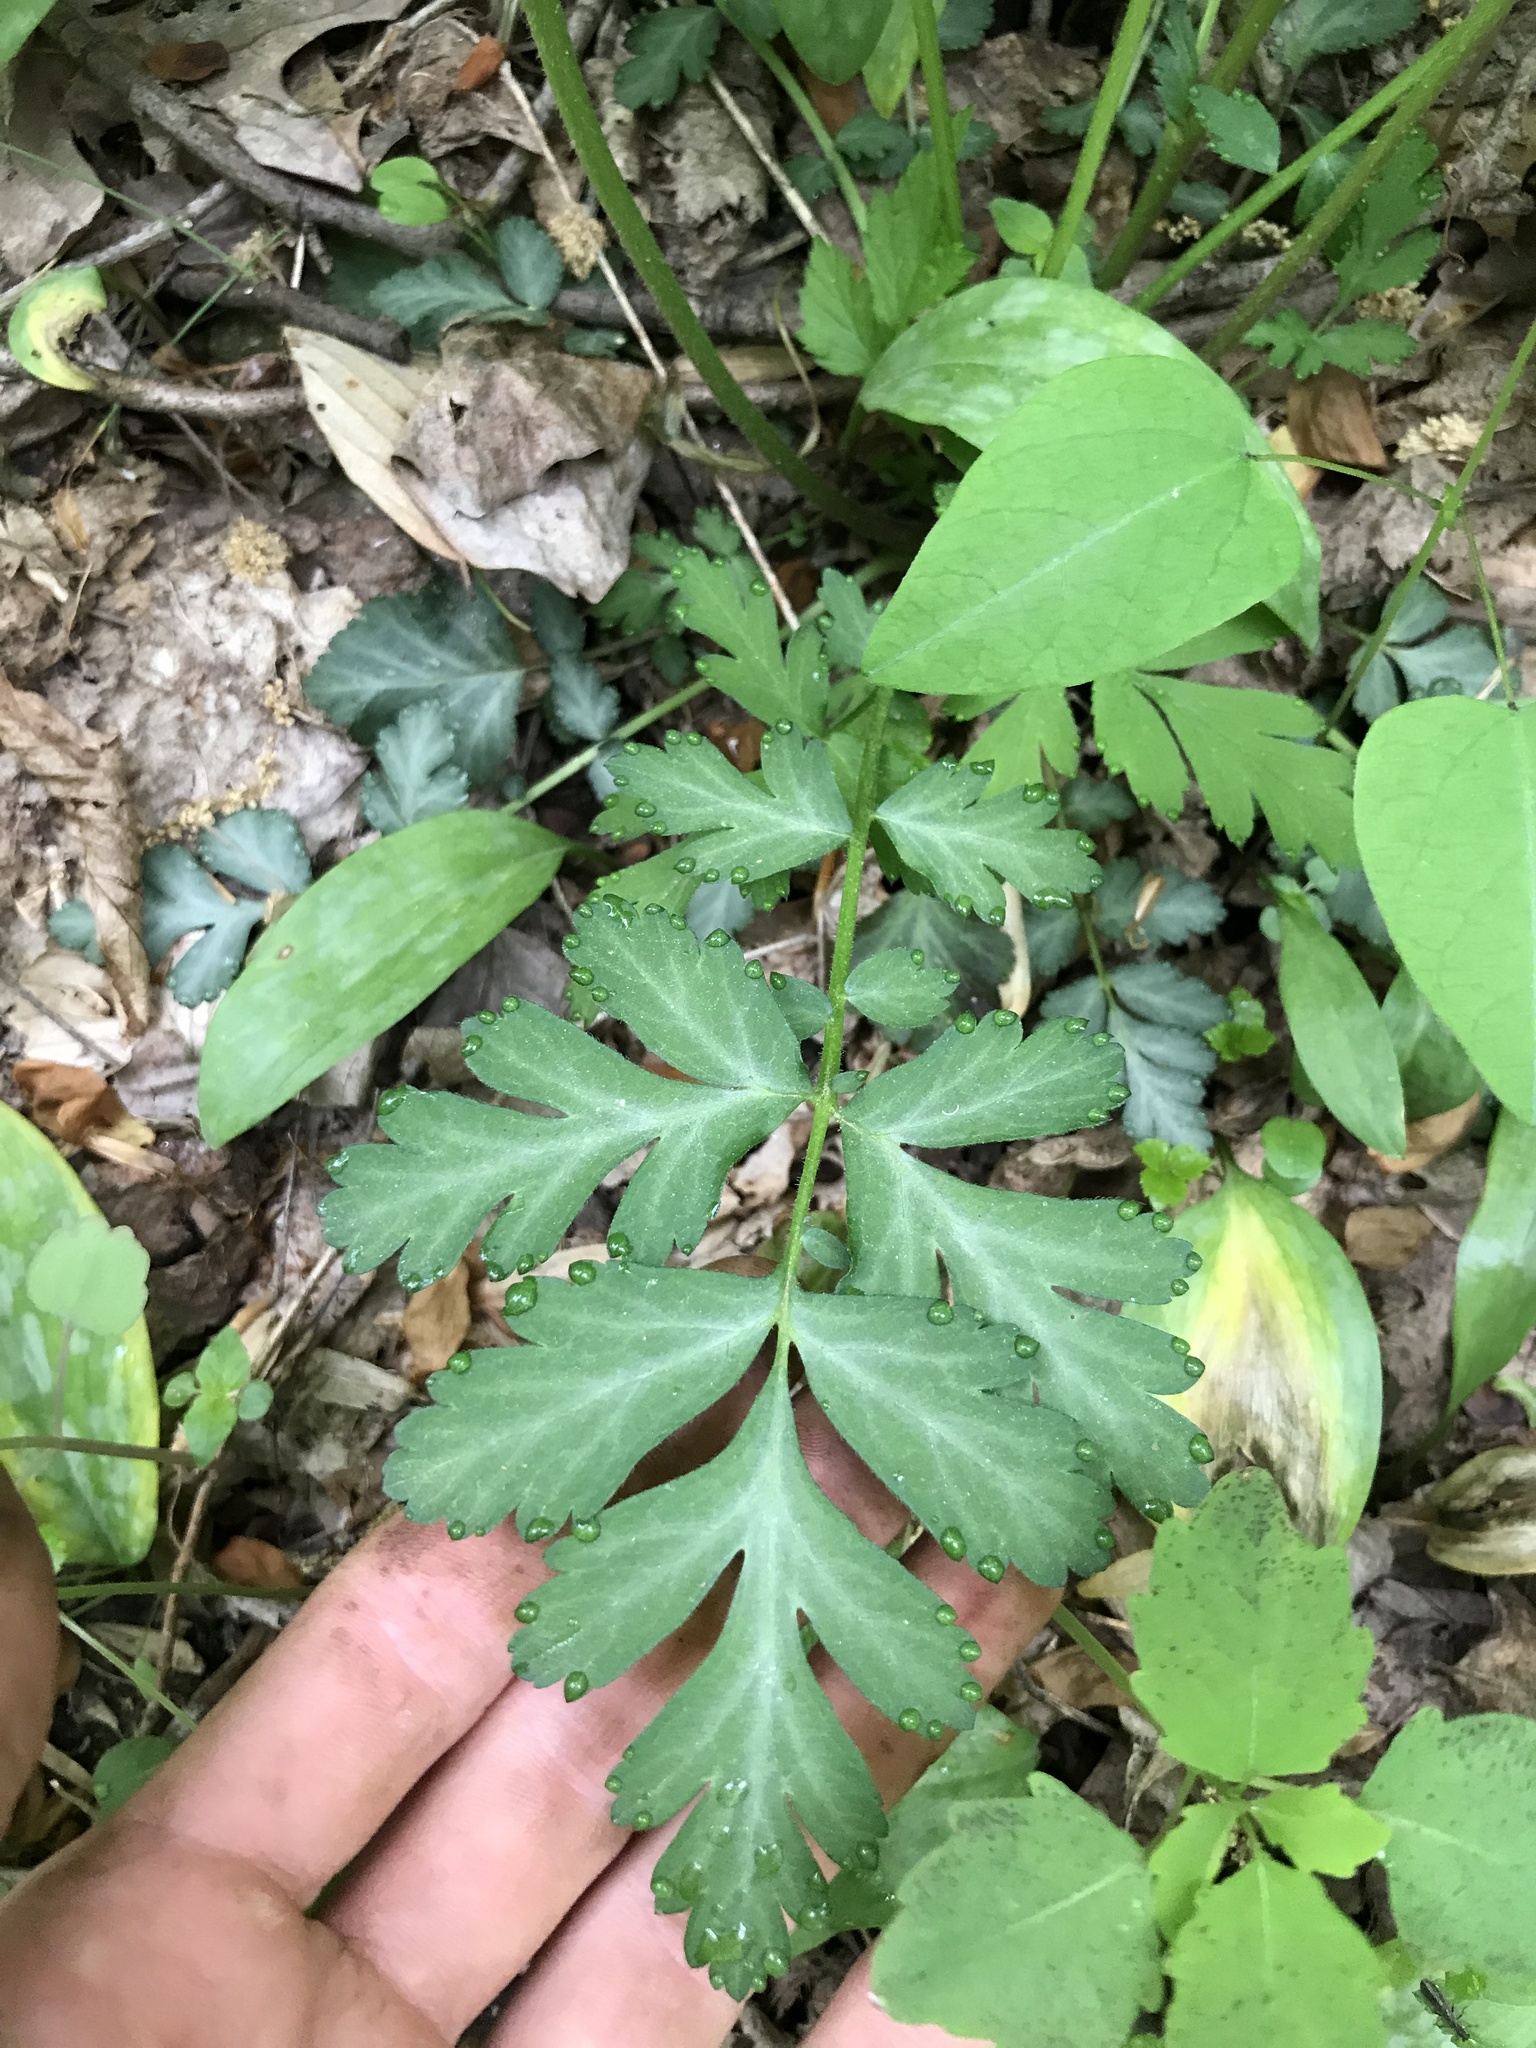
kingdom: Plantae
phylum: Tracheophyta
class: Magnoliopsida
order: Rosales
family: Rosaceae
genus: Geum
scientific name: Geum canadense
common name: White avens
